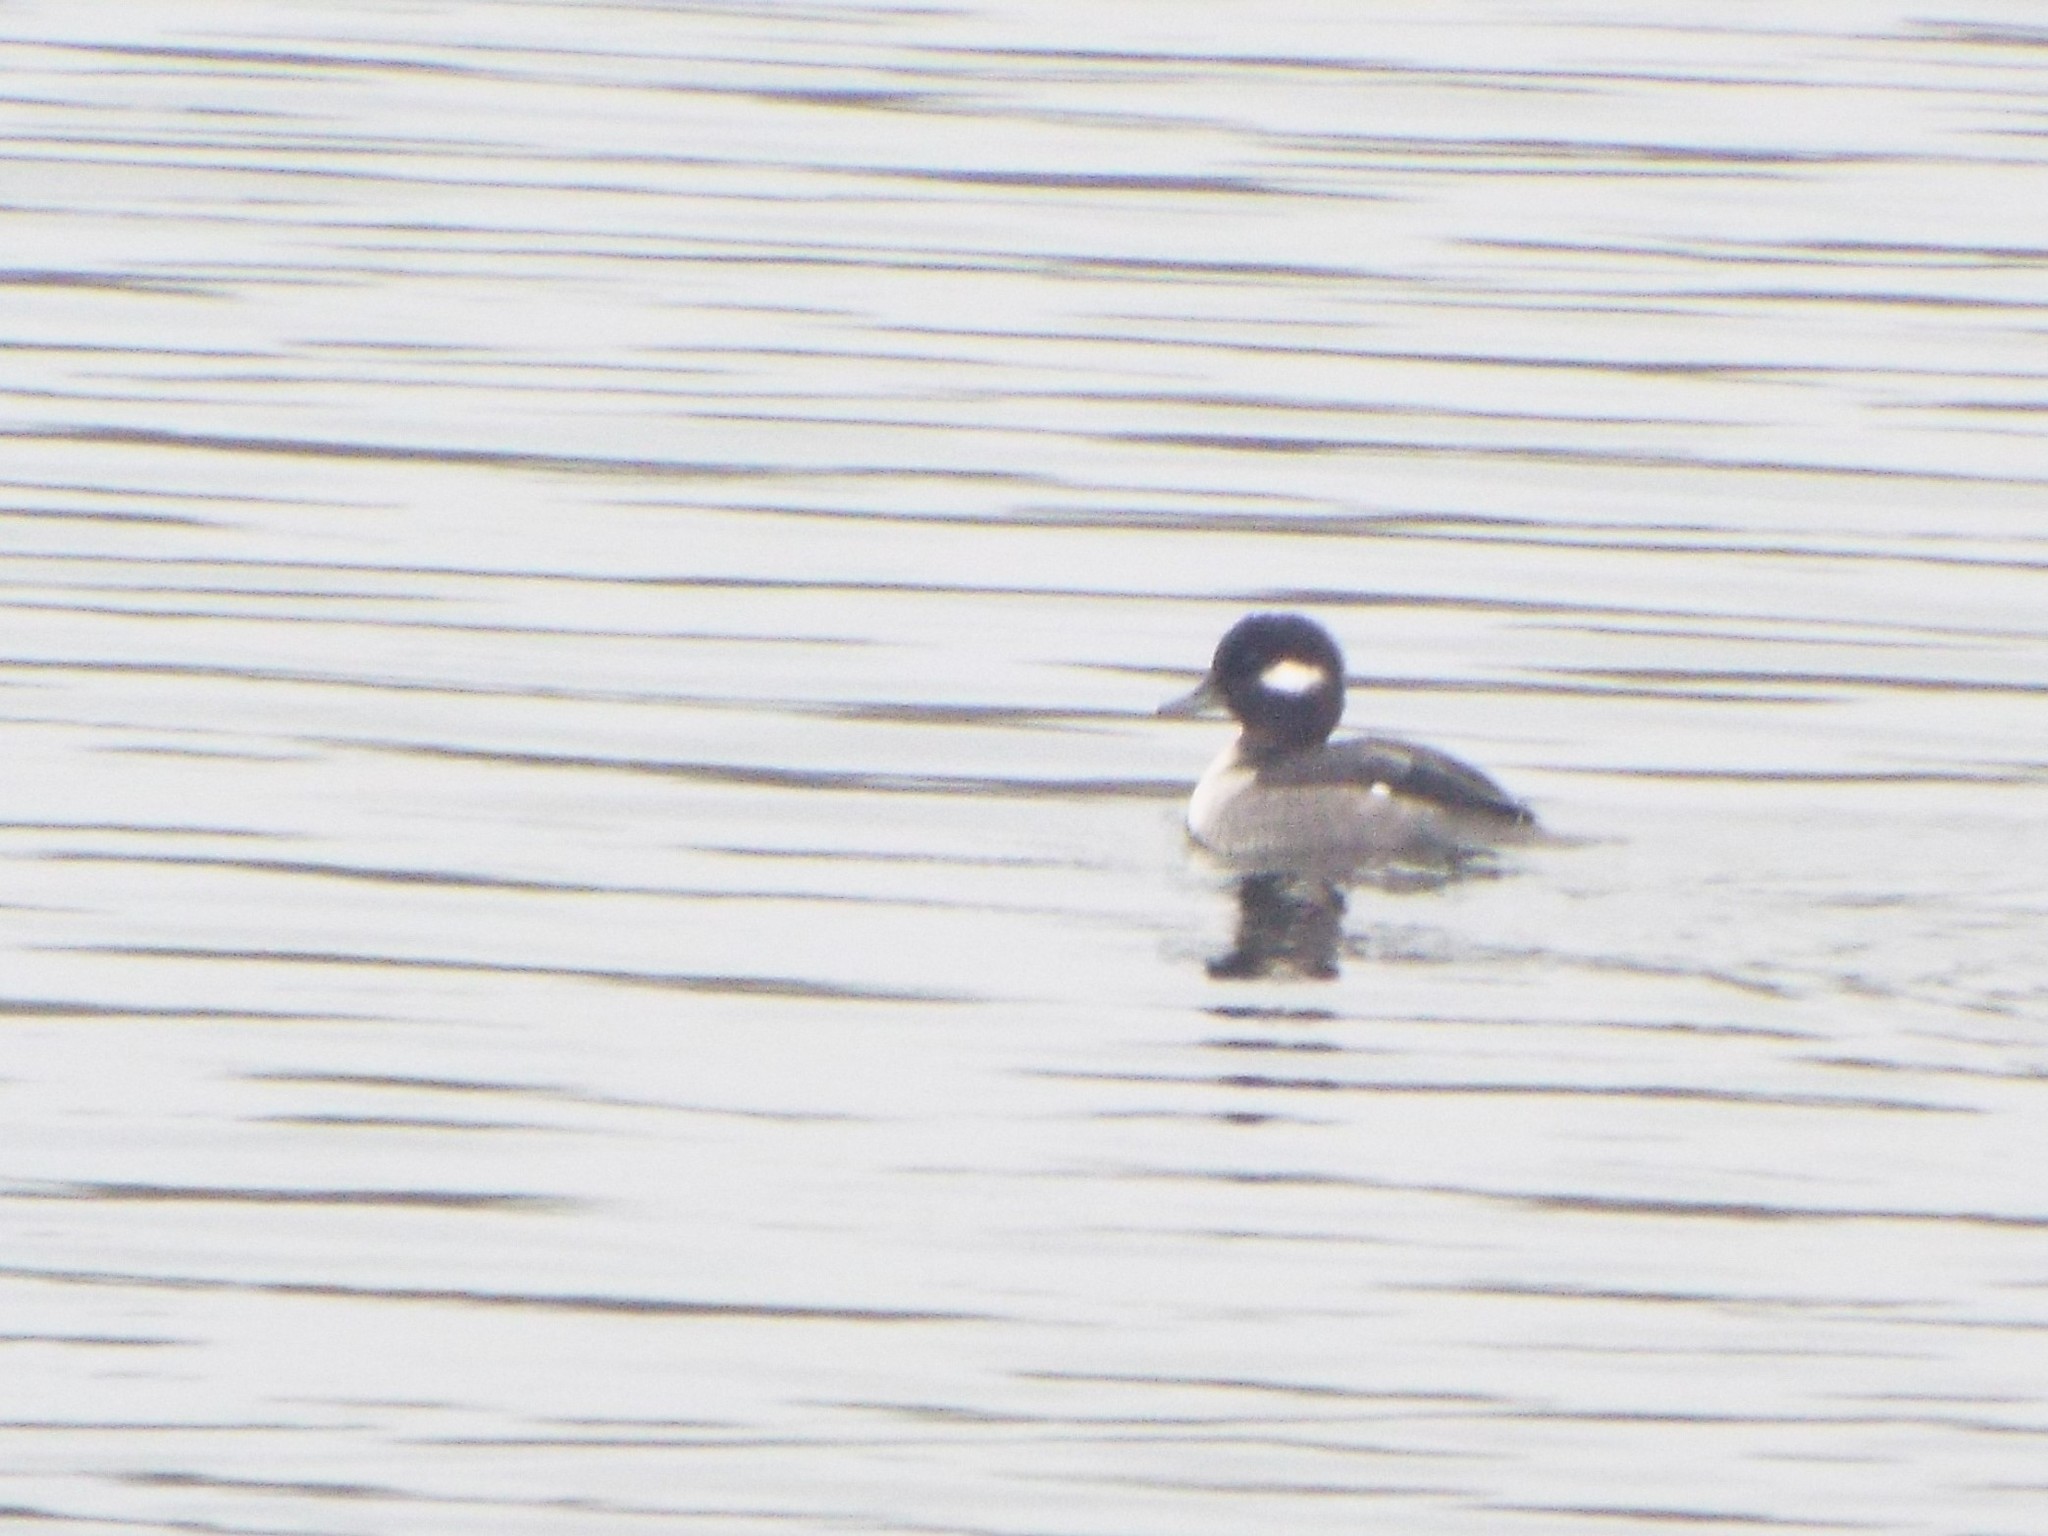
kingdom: Animalia
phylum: Chordata
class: Aves
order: Anseriformes
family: Anatidae
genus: Bucephala
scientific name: Bucephala albeola
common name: Bufflehead
